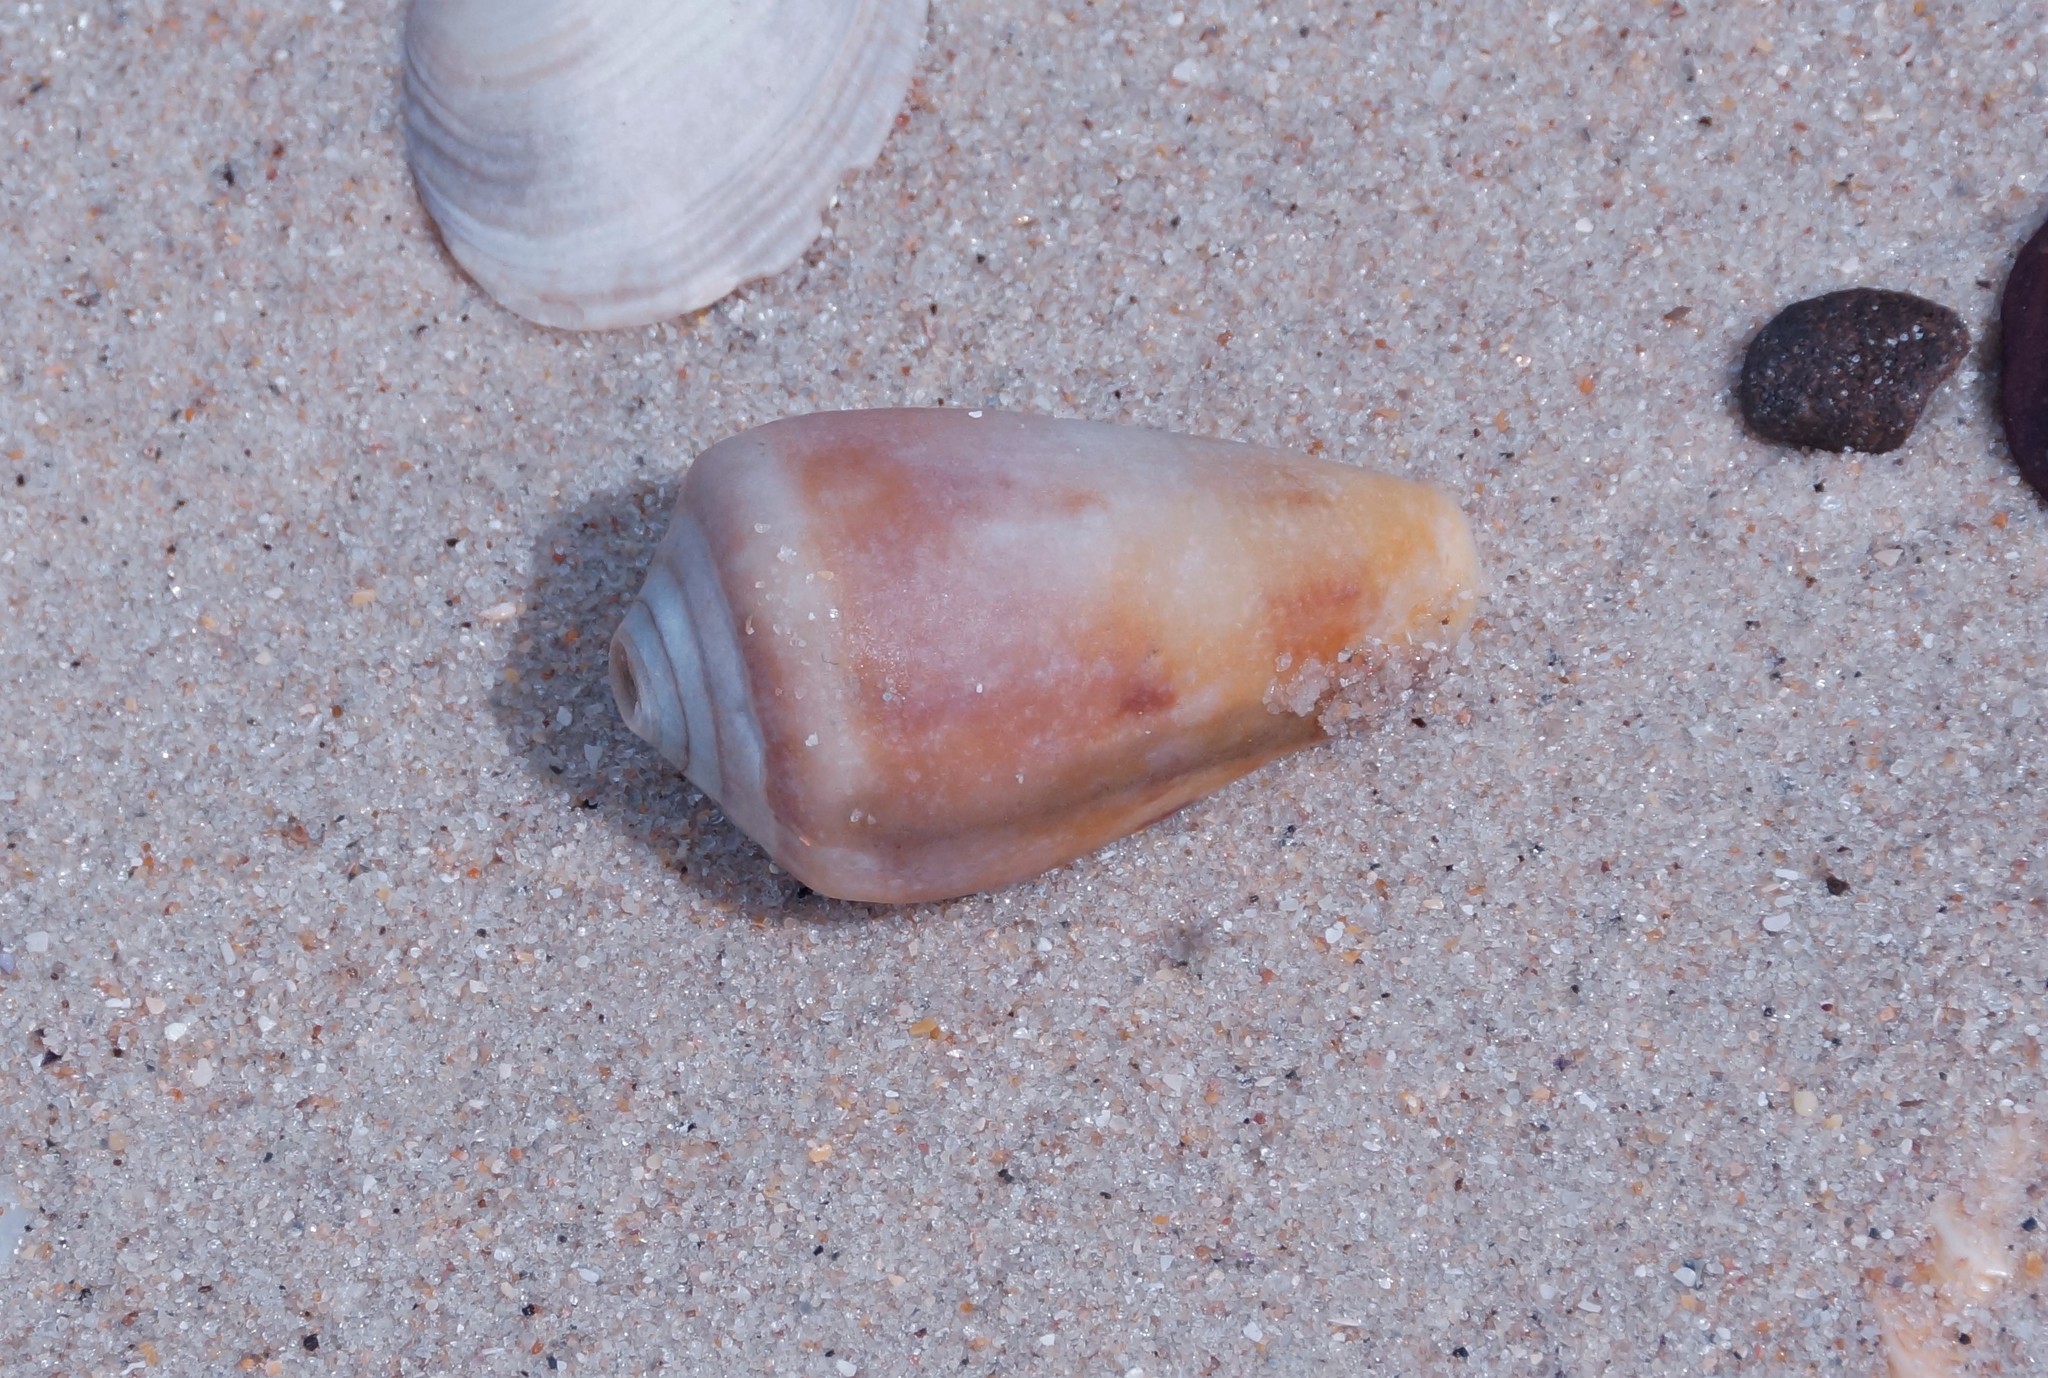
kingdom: Animalia
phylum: Mollusca
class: Gastropoda
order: Neogastropoda
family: Conidae
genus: Conus
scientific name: Conus anemone
